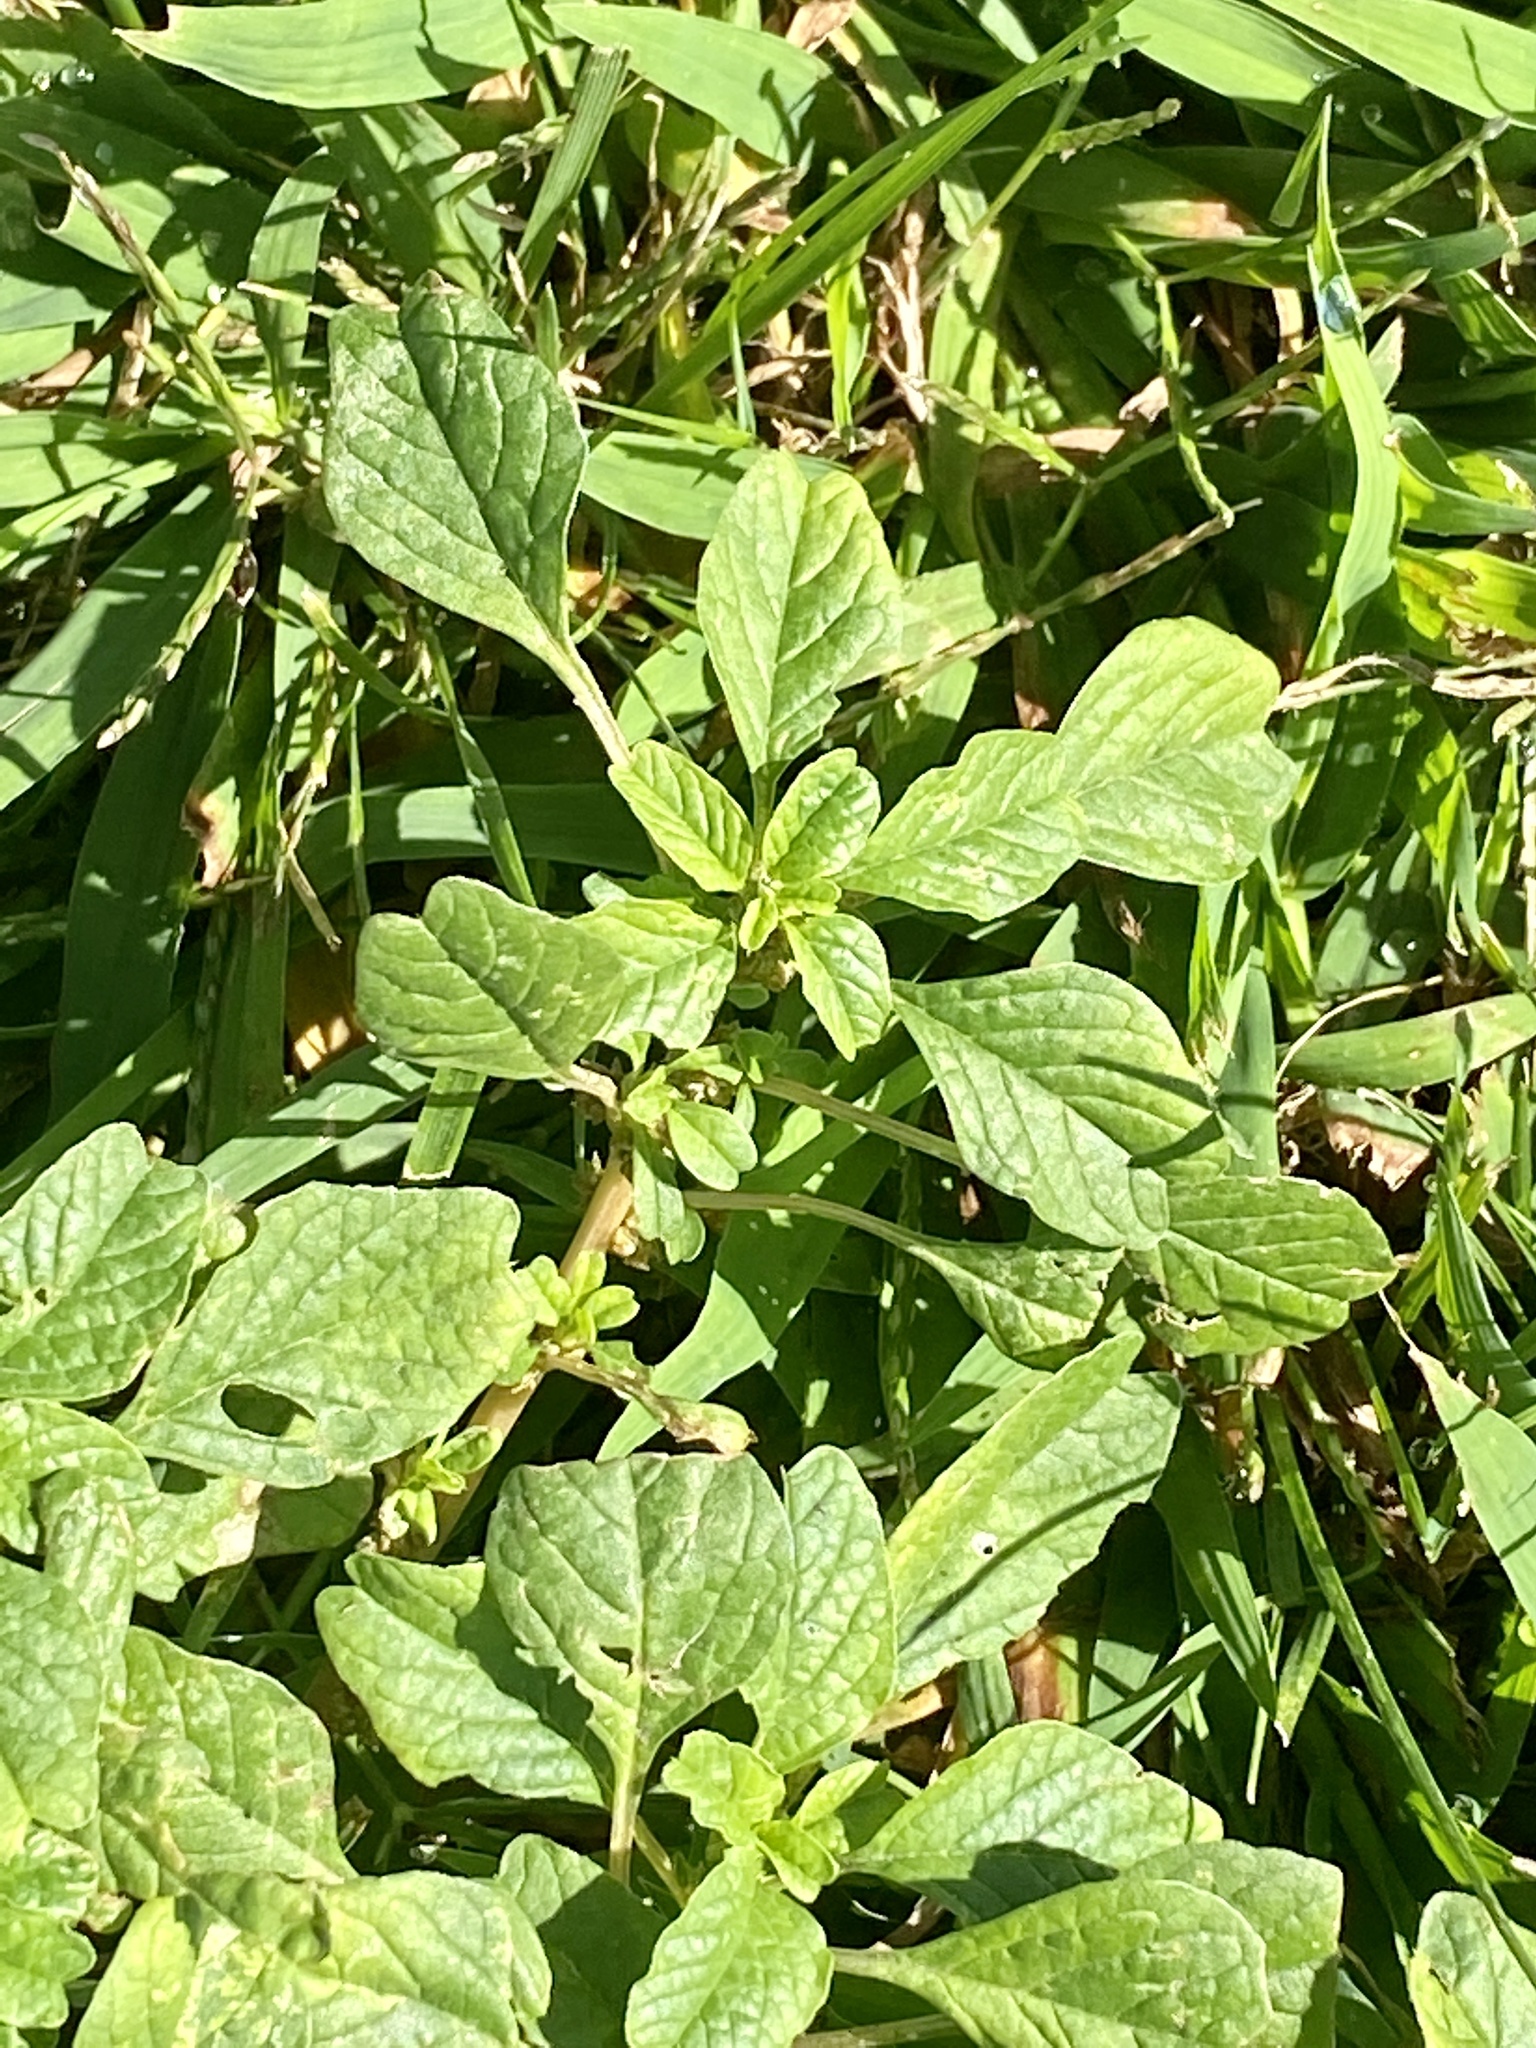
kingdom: Plantae
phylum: Tracheophyta
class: Magnoliopsida
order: Caryophyllales
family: Amaranthaceae
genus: Amaranthus
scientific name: Amaranthus blitum
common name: Purple amaranth
